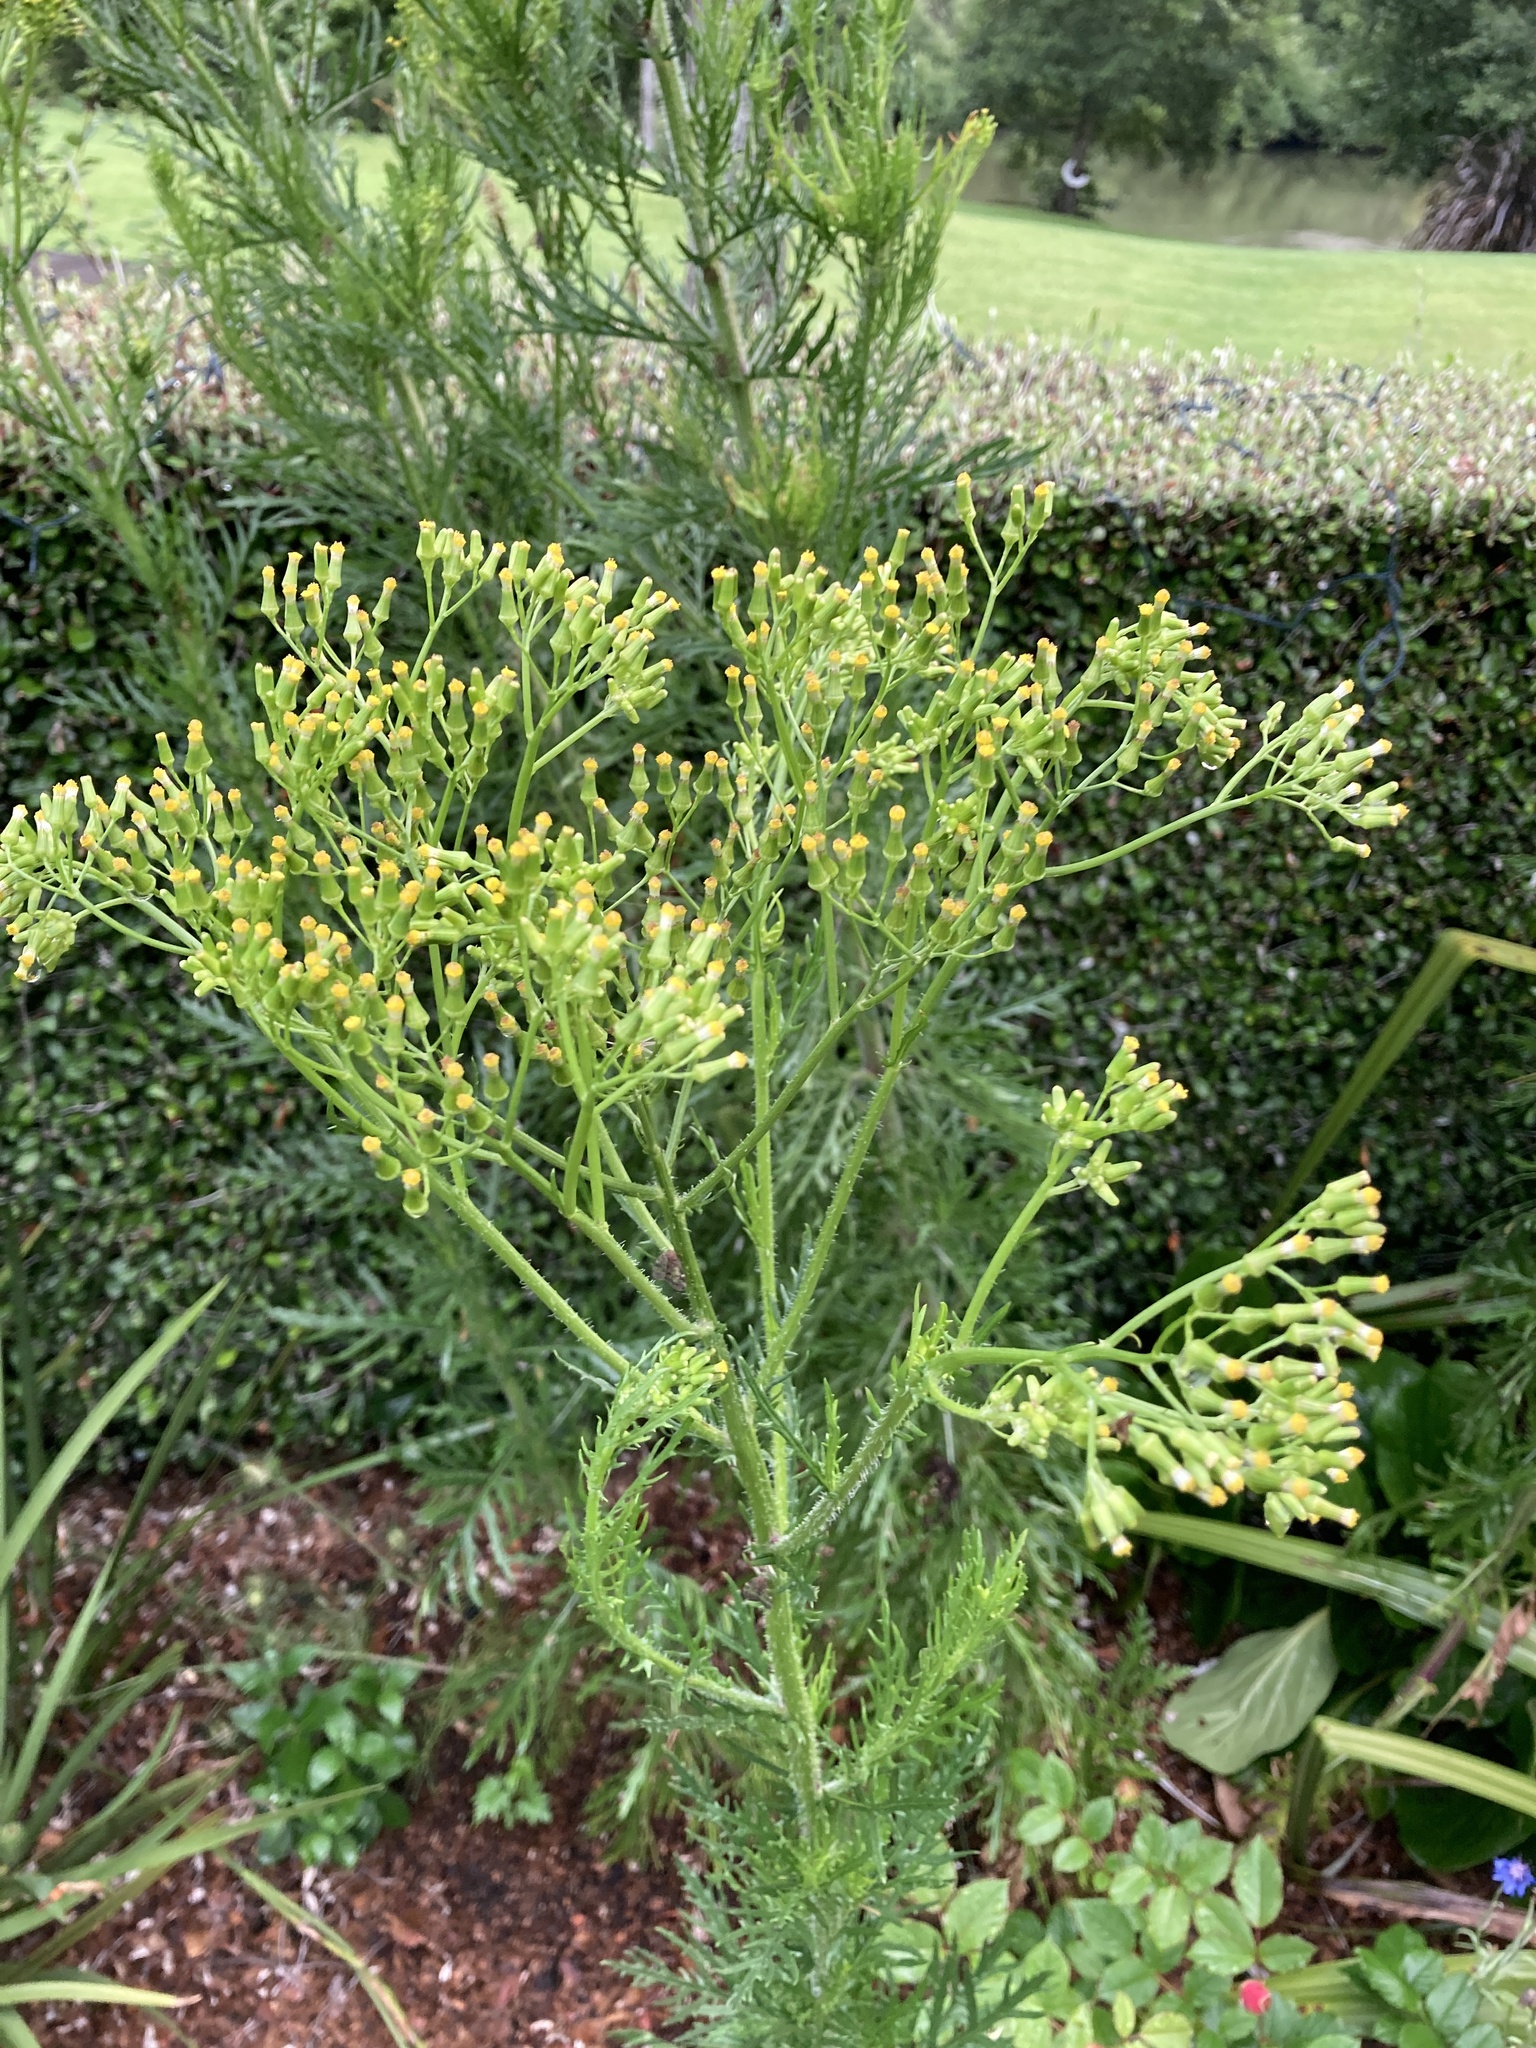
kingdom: Plantae
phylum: Tracheophyta
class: Magnoliopsida
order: Asterales
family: Asteraceae
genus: Senecio
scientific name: Senecio esleri
